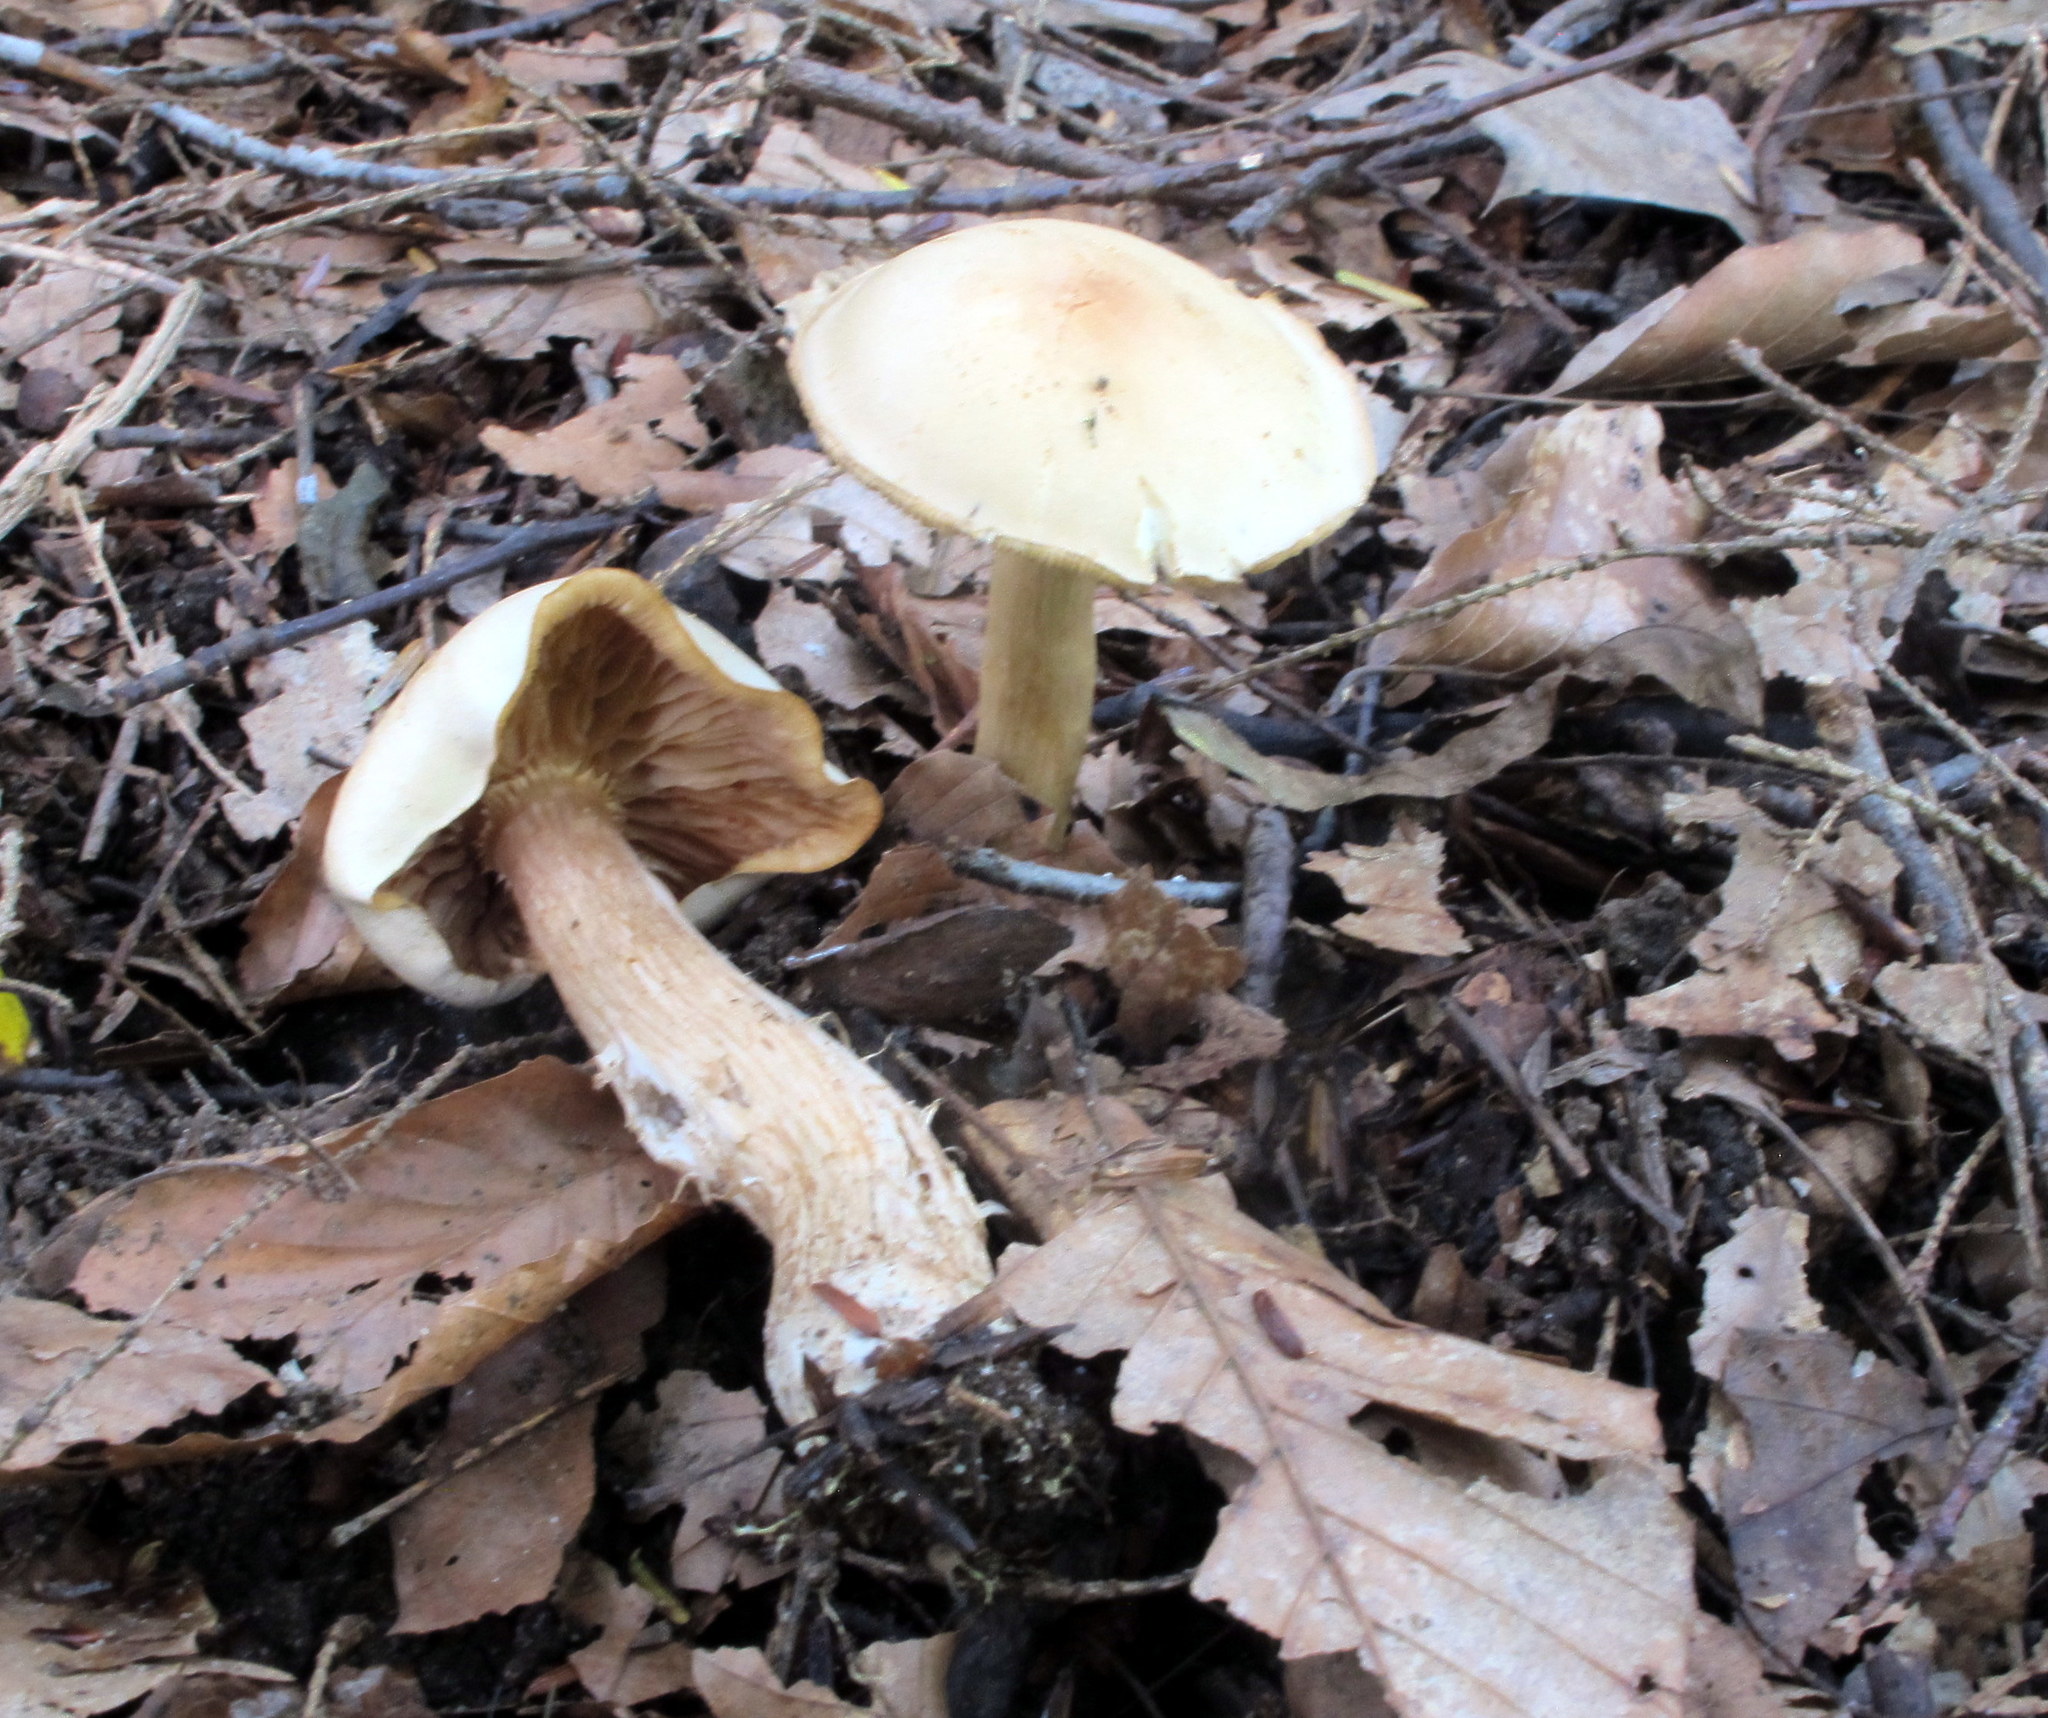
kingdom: Fungi
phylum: Basidiomycota
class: Agaricomycetes
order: Agaricales
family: Tricholomataceae
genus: Tricholoma
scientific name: Tricholoma odorum
